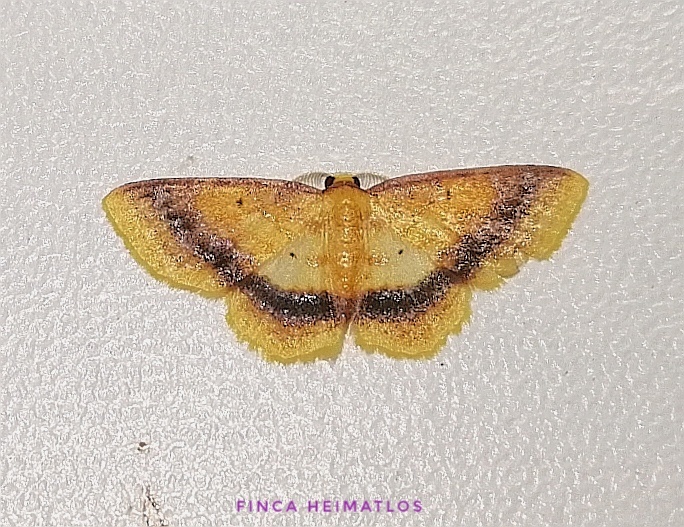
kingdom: Animalia
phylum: Arthropoda
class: Insecta
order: Lepidoptera
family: Geometridae
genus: Eois
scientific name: Eois fasciata
